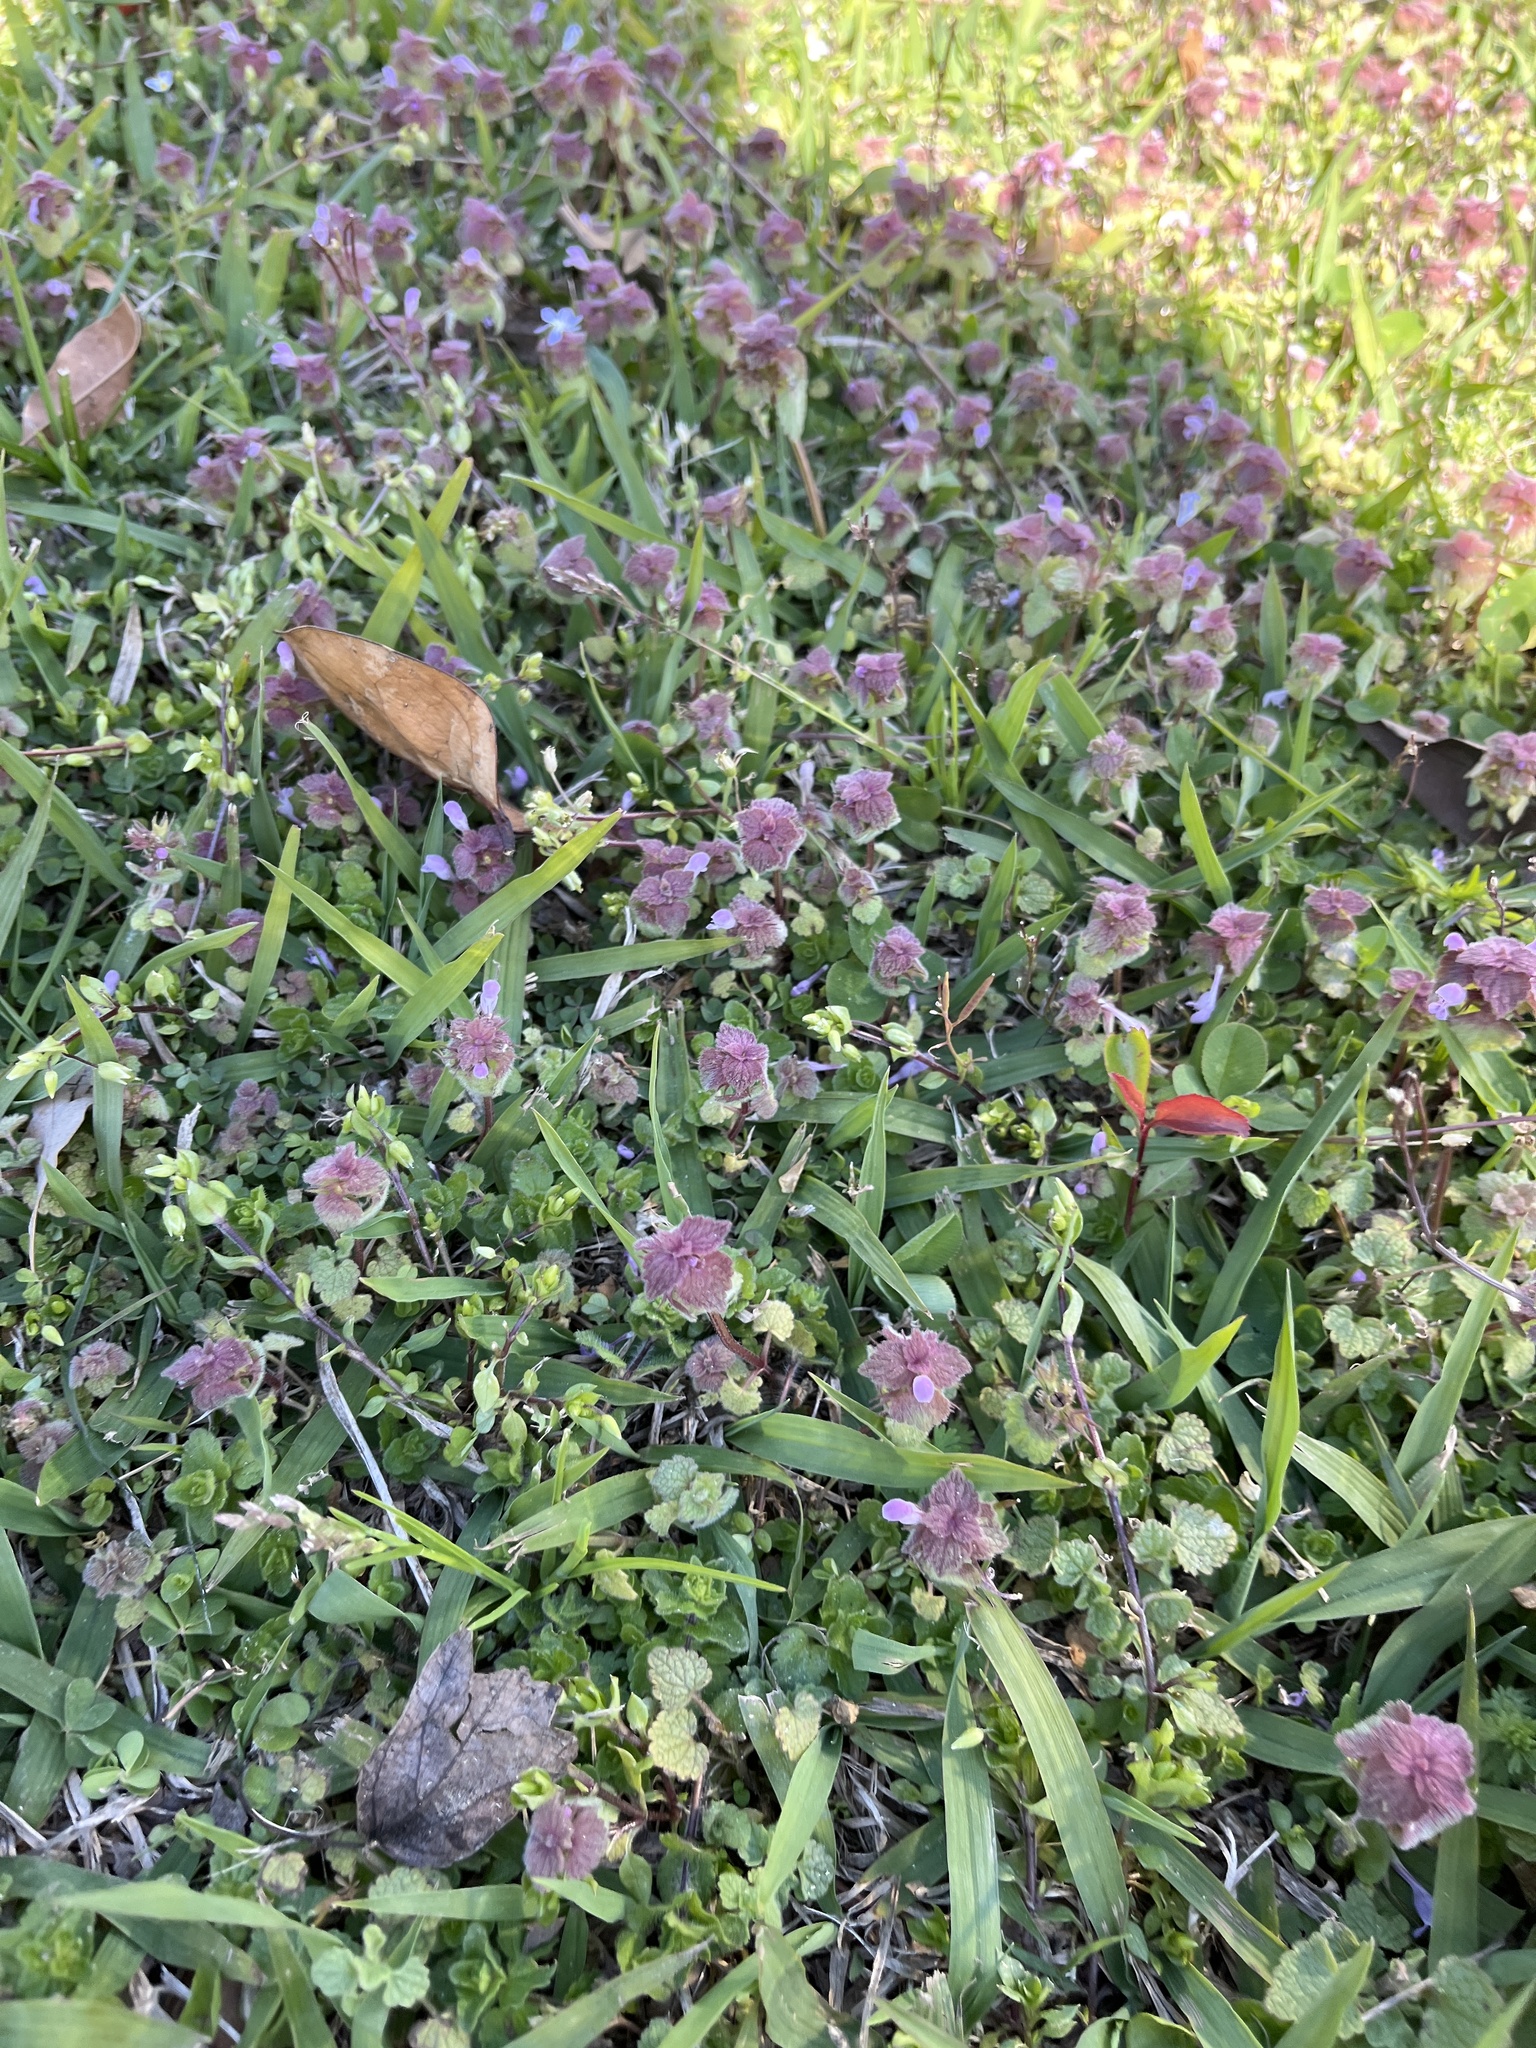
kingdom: Plantae
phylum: Tracheophyta
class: Magnoliopsida
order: Lamiales
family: Lamiaceae
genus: Lamium
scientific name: Lamium purpureum
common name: Red dead-nettle
